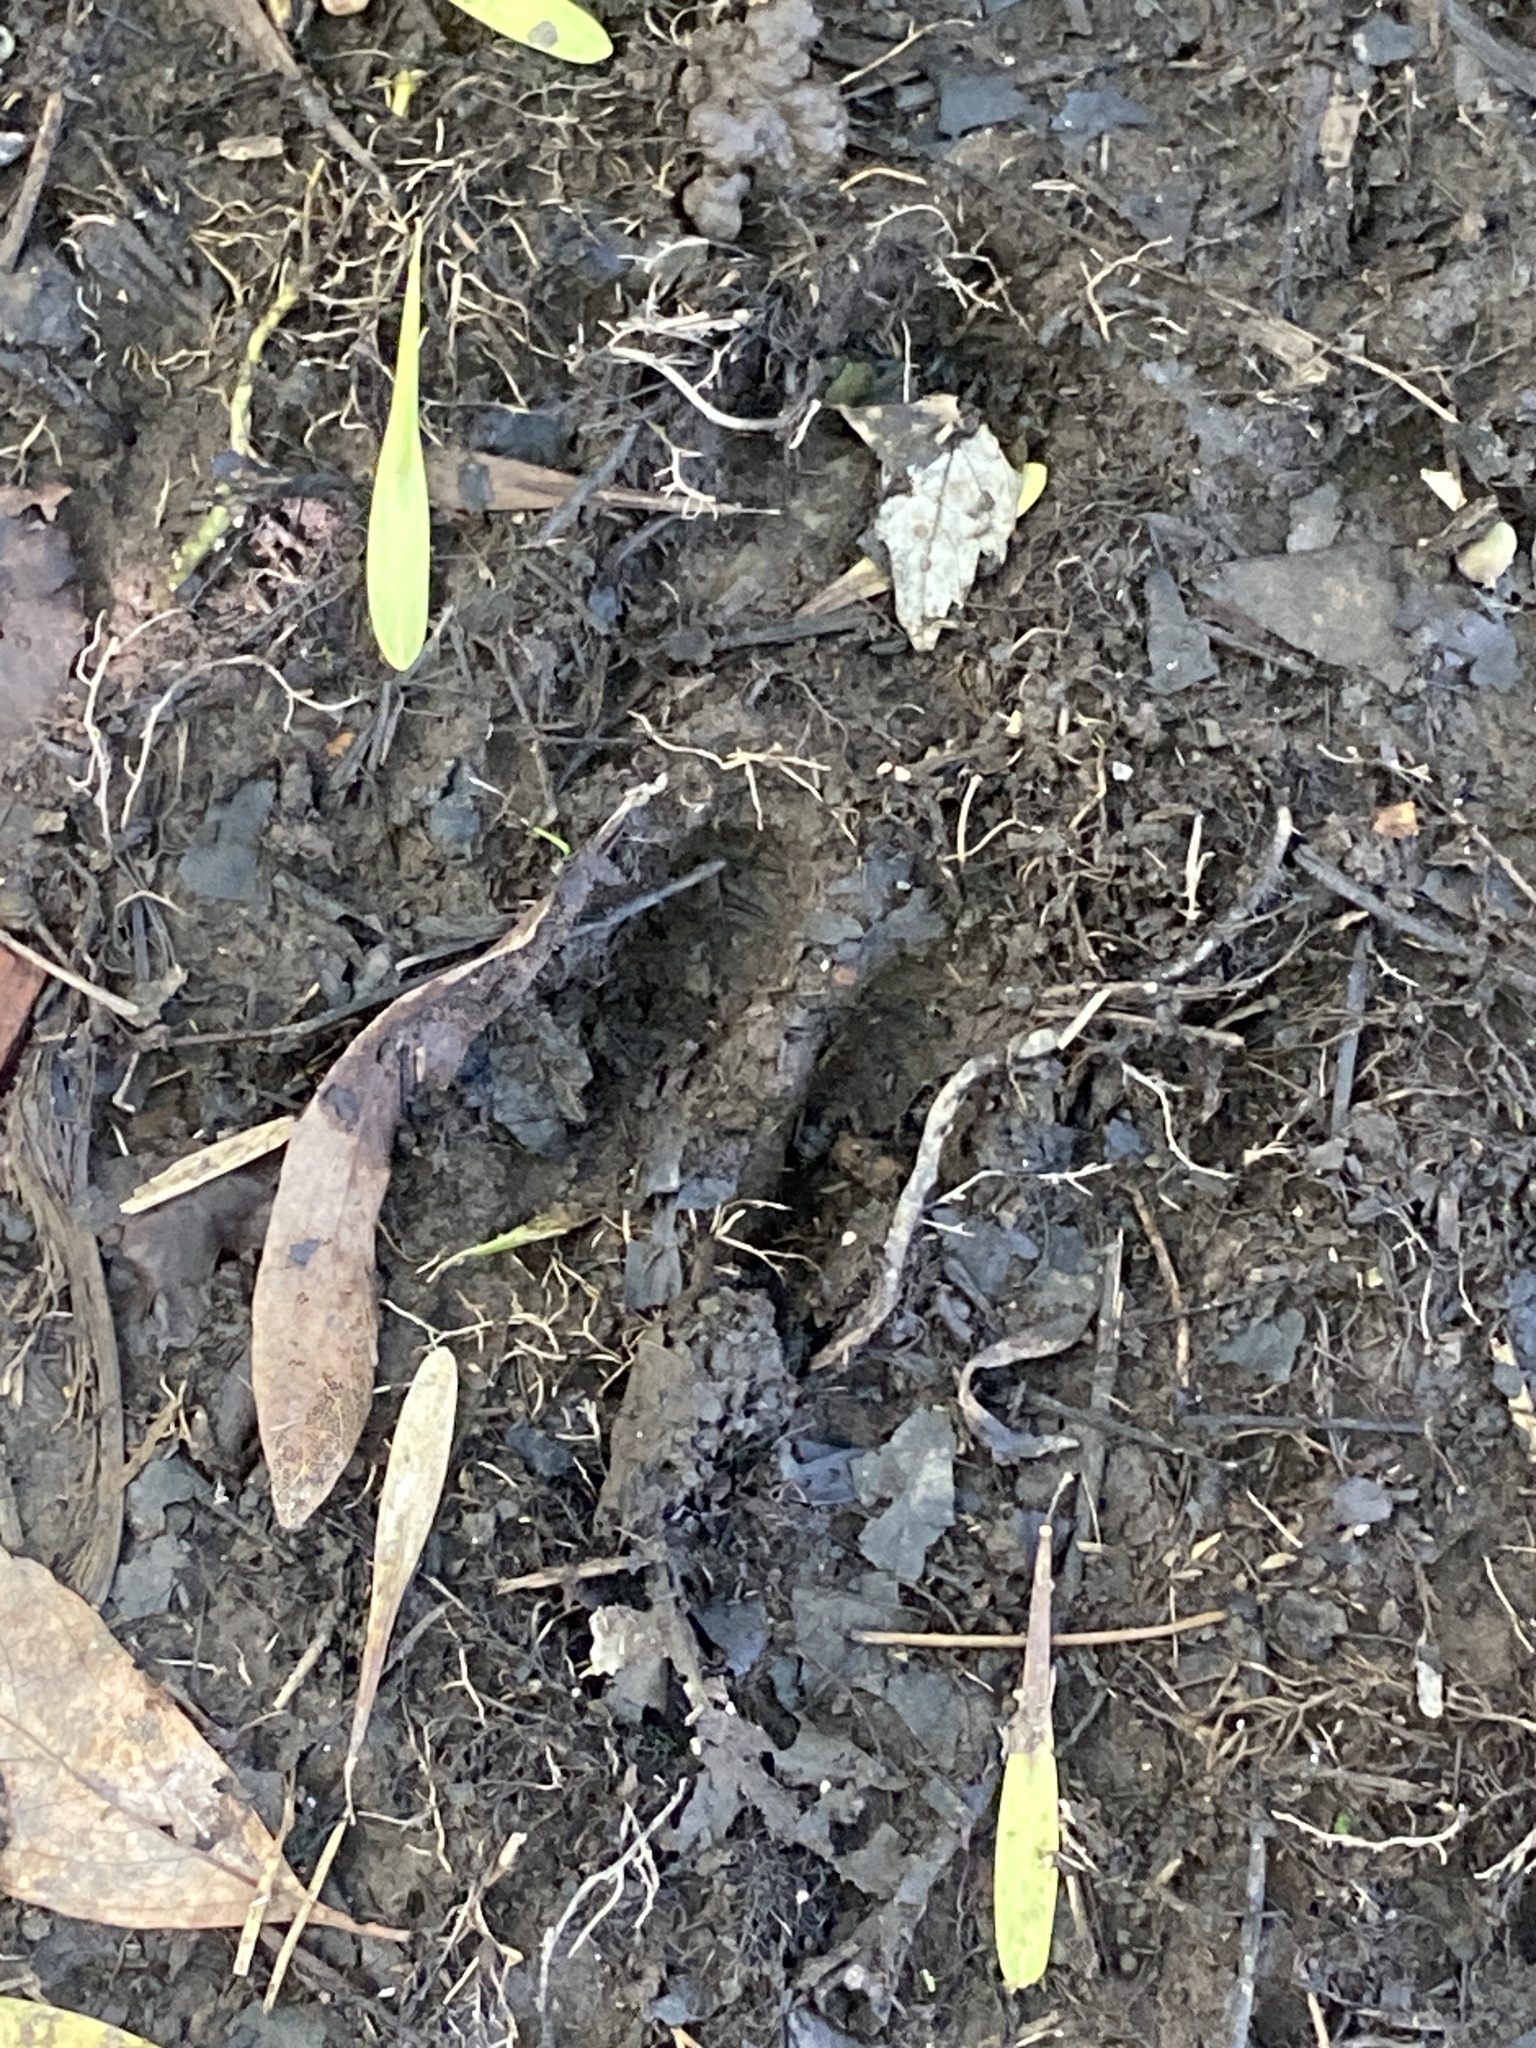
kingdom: Animalia
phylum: Chordata
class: Mammalia
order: Artiodactyla
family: Cervidae
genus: Odocoileus
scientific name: Odocoileus virginianus
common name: White-tailed deer
